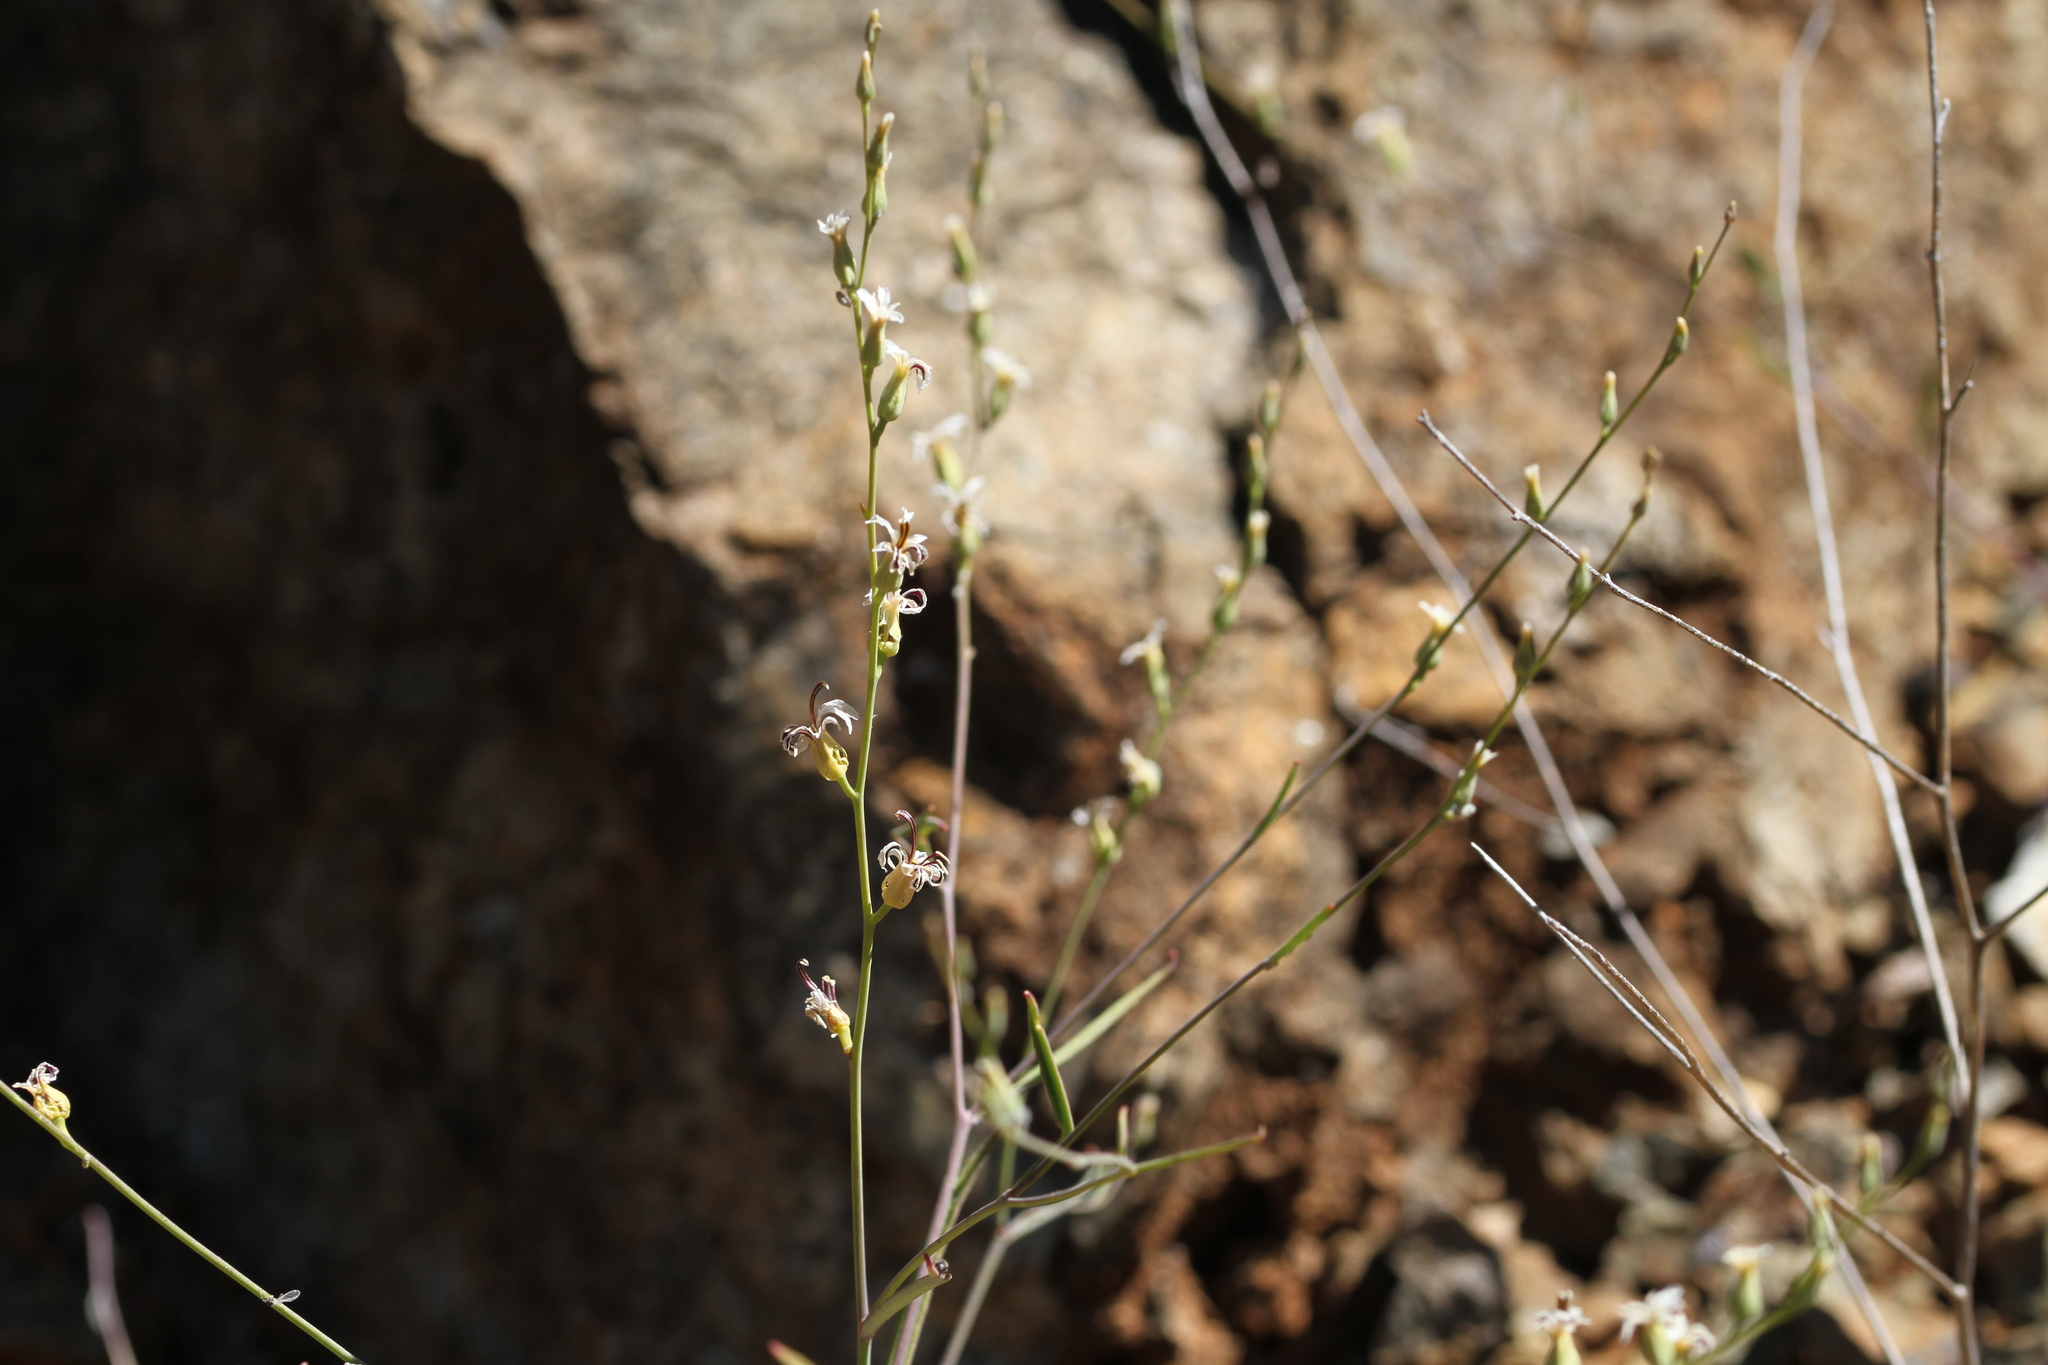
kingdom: Plantae
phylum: Tracheophyta
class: Magnoliopsida
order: Brassicales
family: Brassicaceae
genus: Streptanthus
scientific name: Streptanthus barbiger
